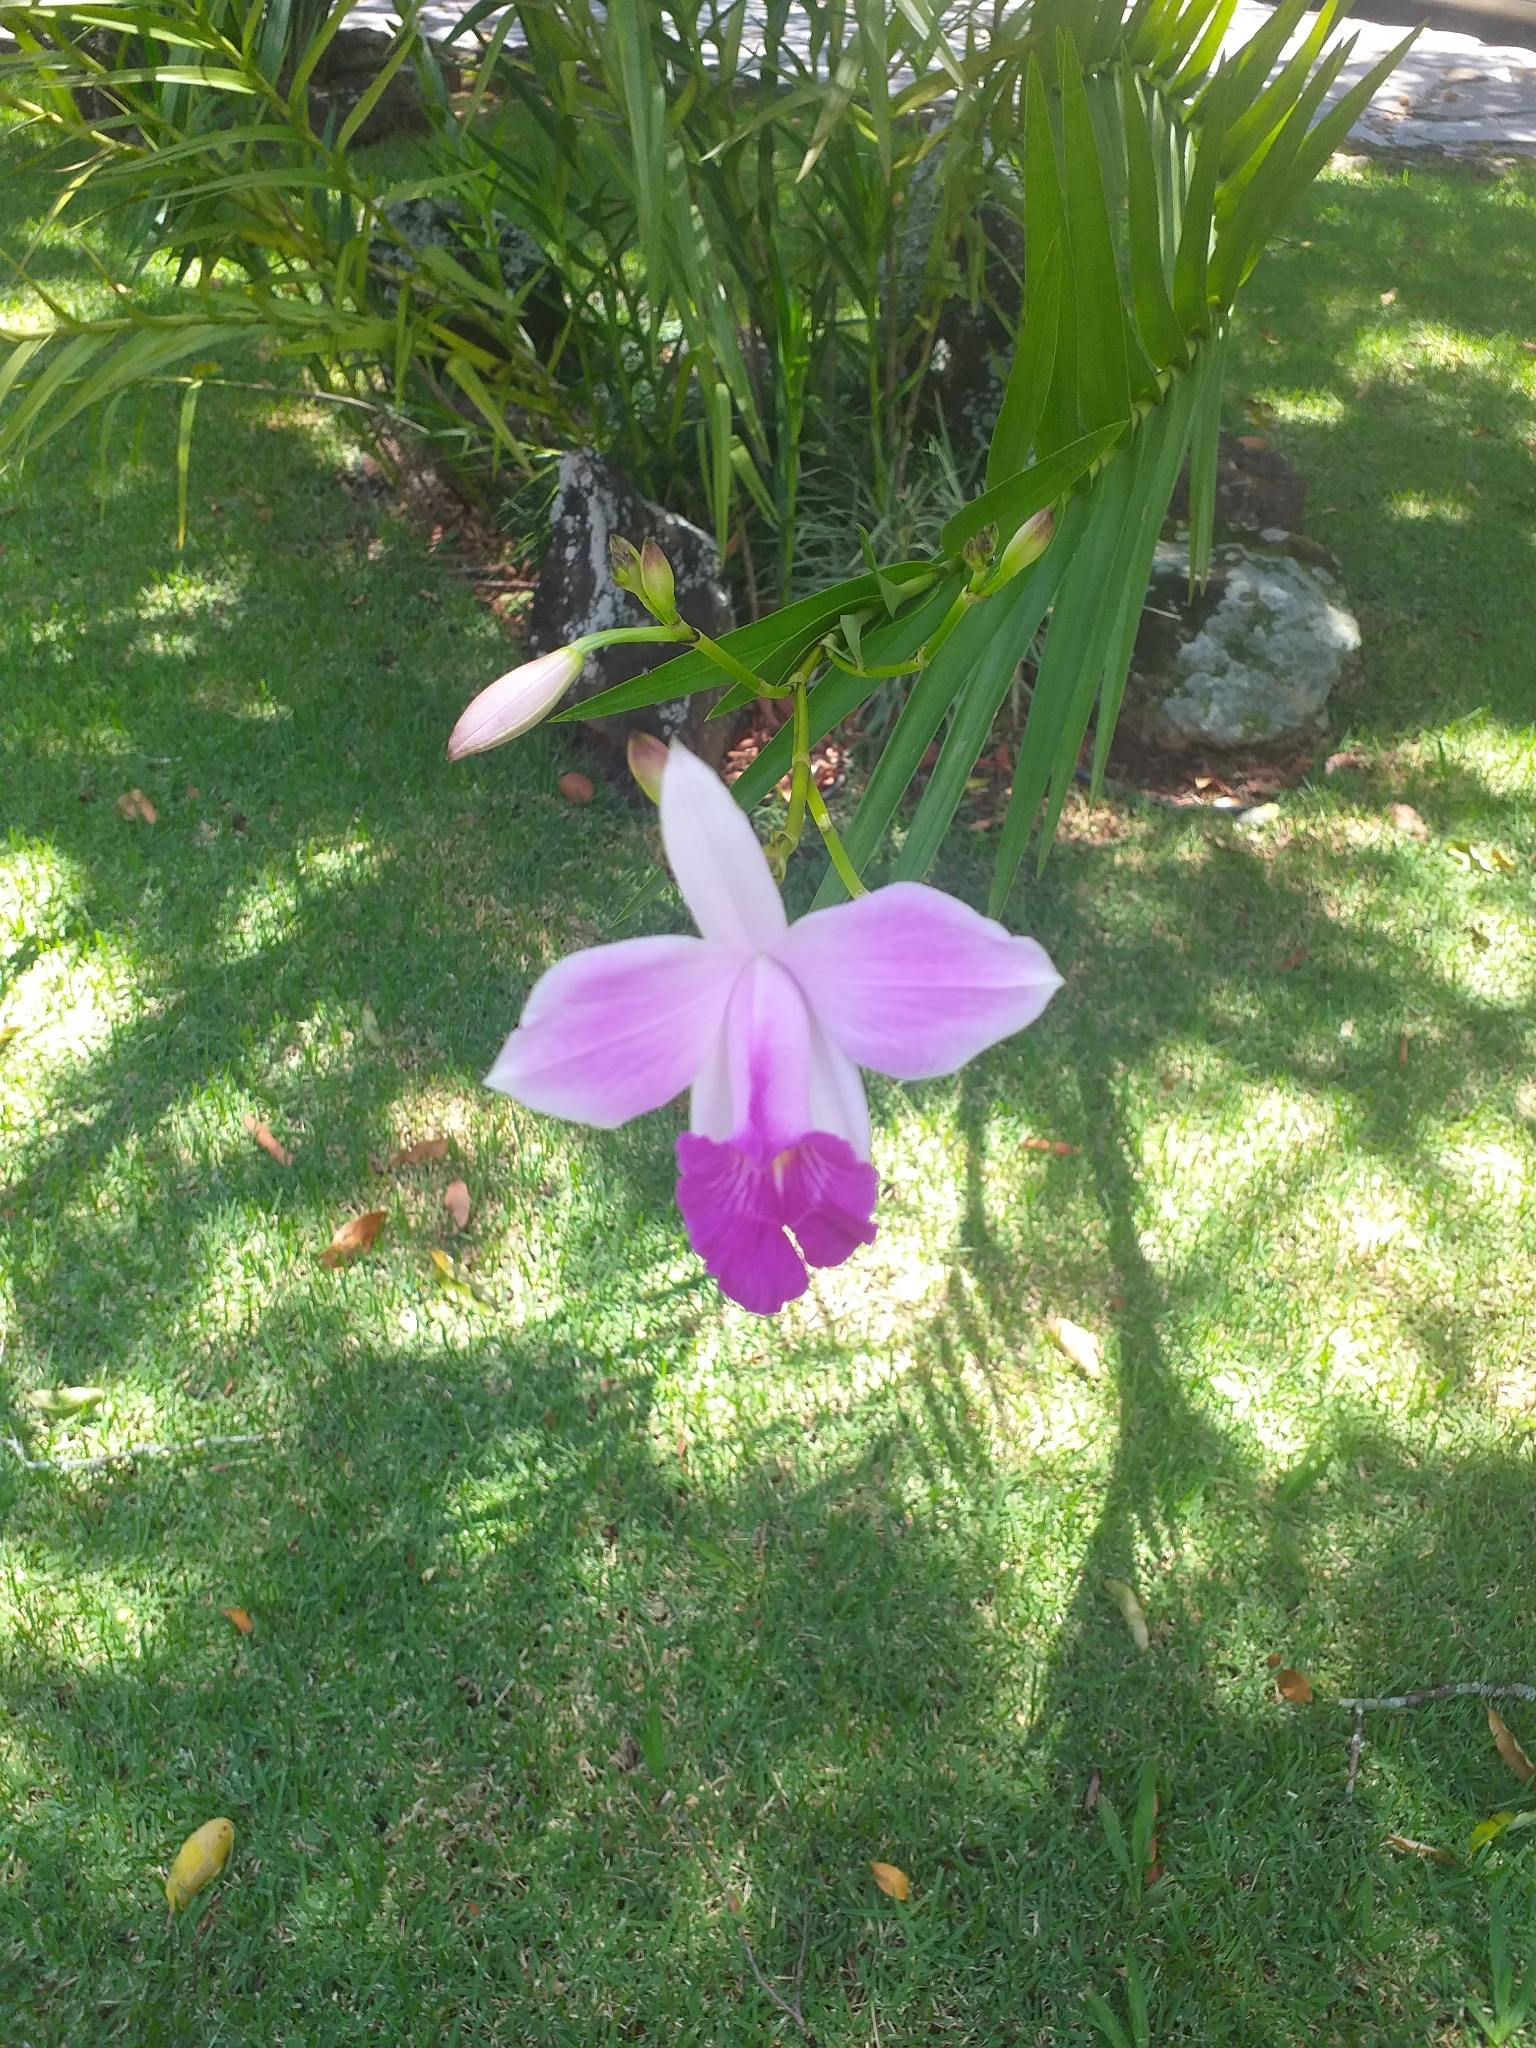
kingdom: Plantae
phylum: Tracheophyta
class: Liliopsida
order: Asparagales
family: Orchidaceae
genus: Arundina
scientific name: Arundina graminifolia
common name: Bamboo orchid
